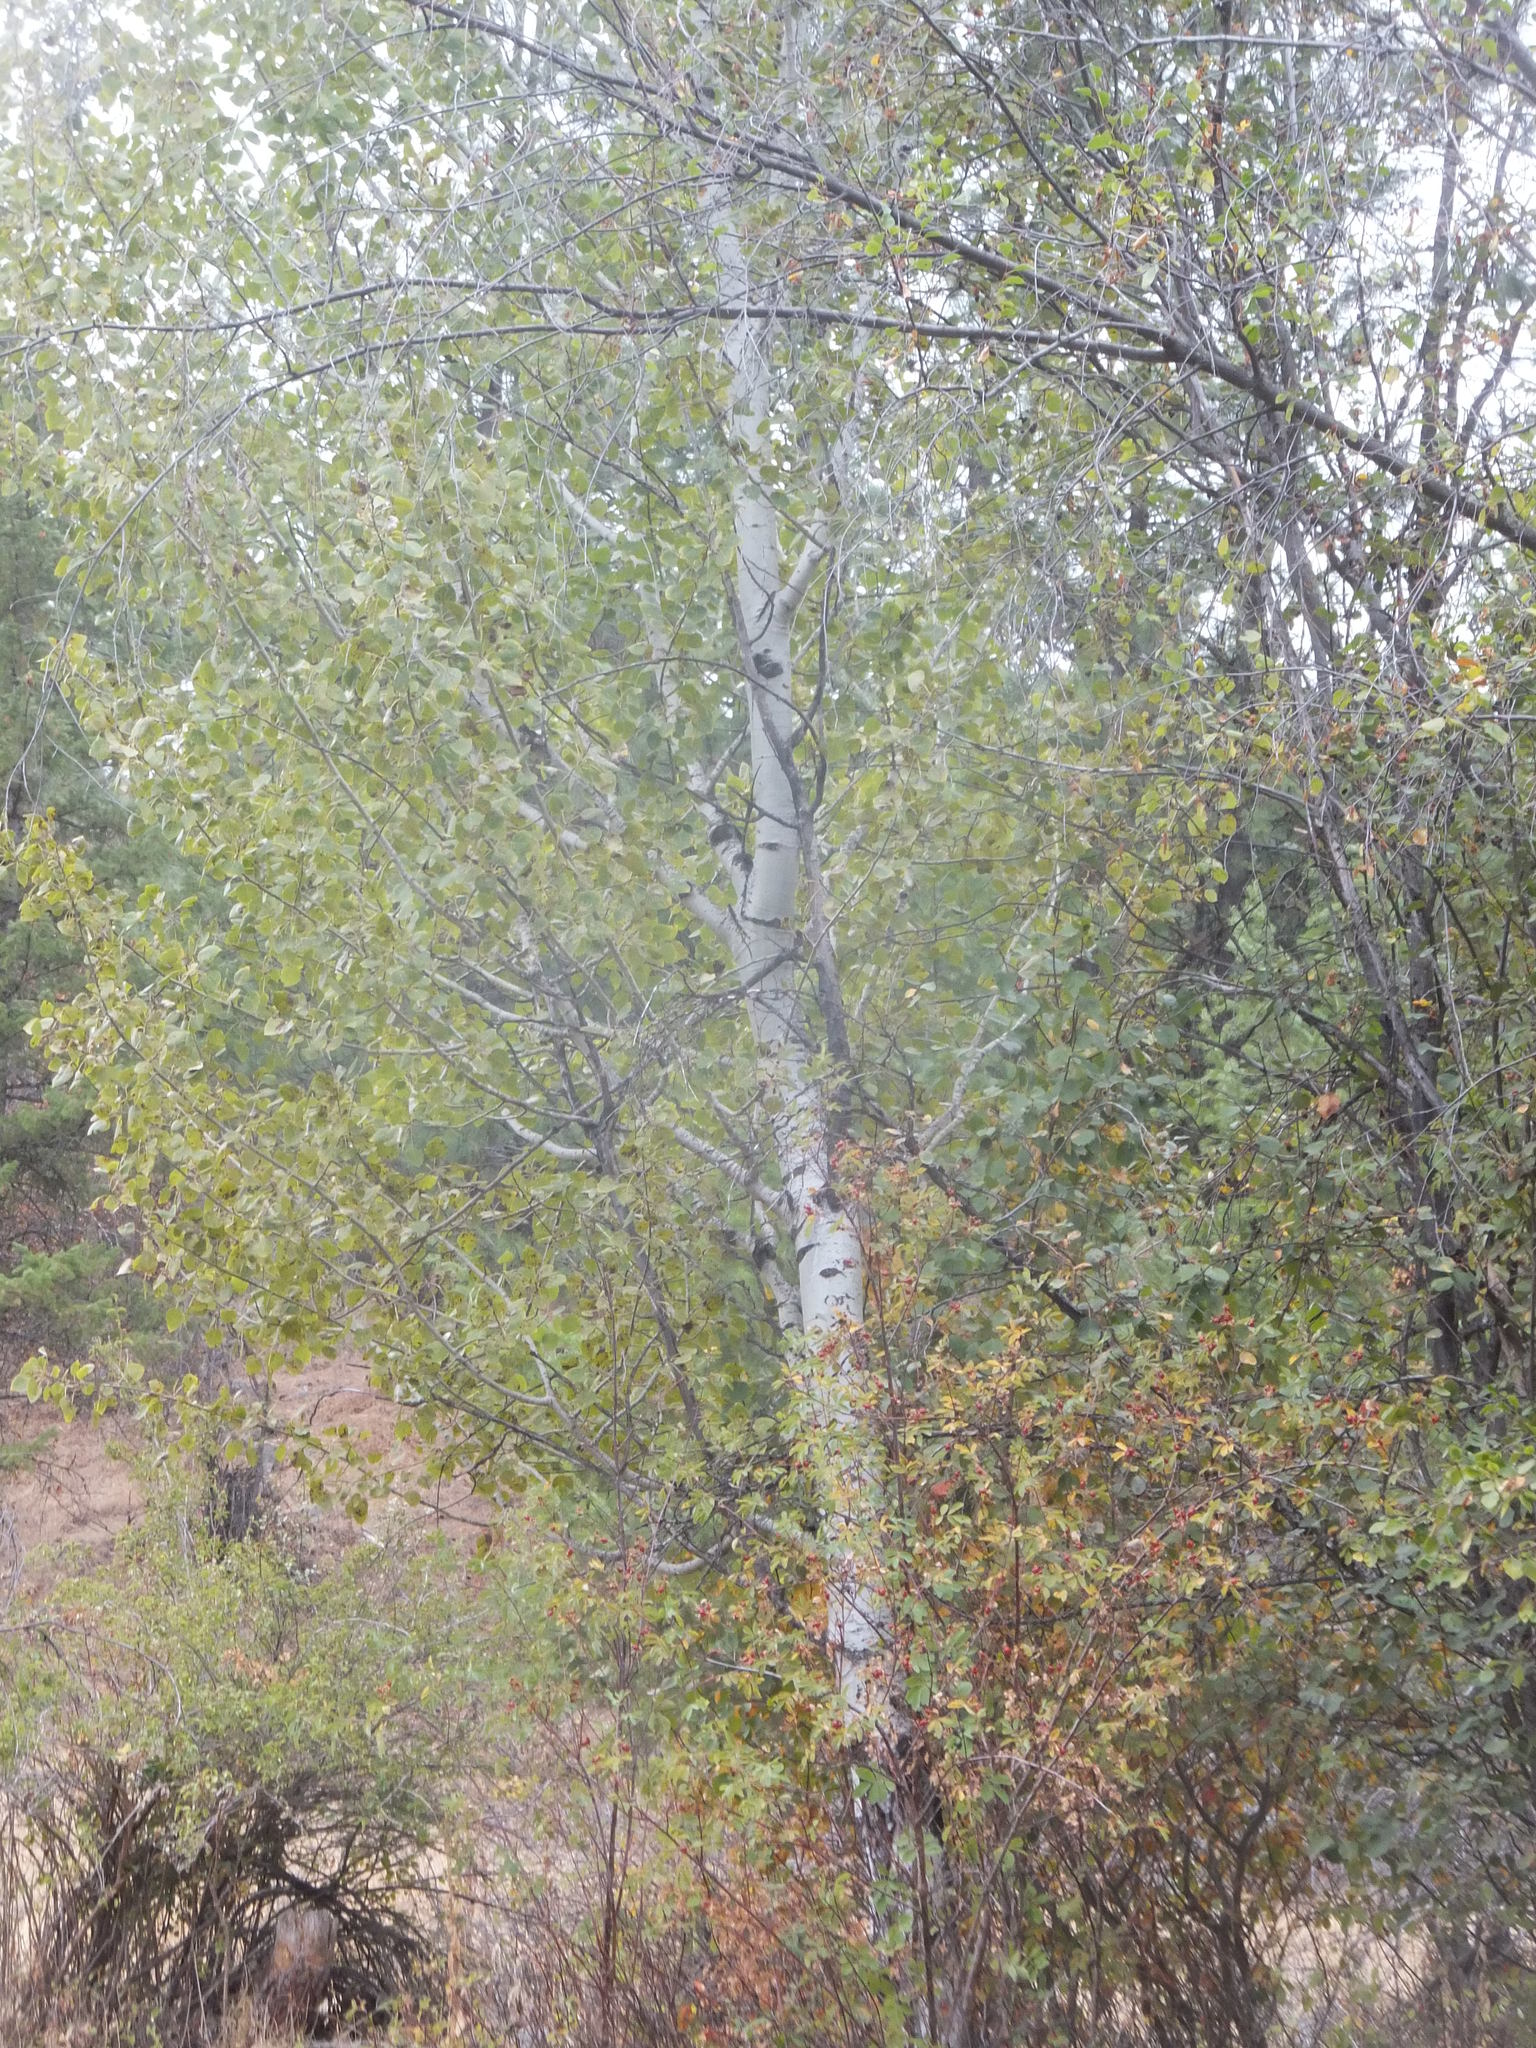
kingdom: Plantae
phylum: Tracheophyta
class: Magnoliopsida
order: Malpighiales
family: Salicaceae
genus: Populus
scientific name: Populus tremuloides
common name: Quaking aspen
